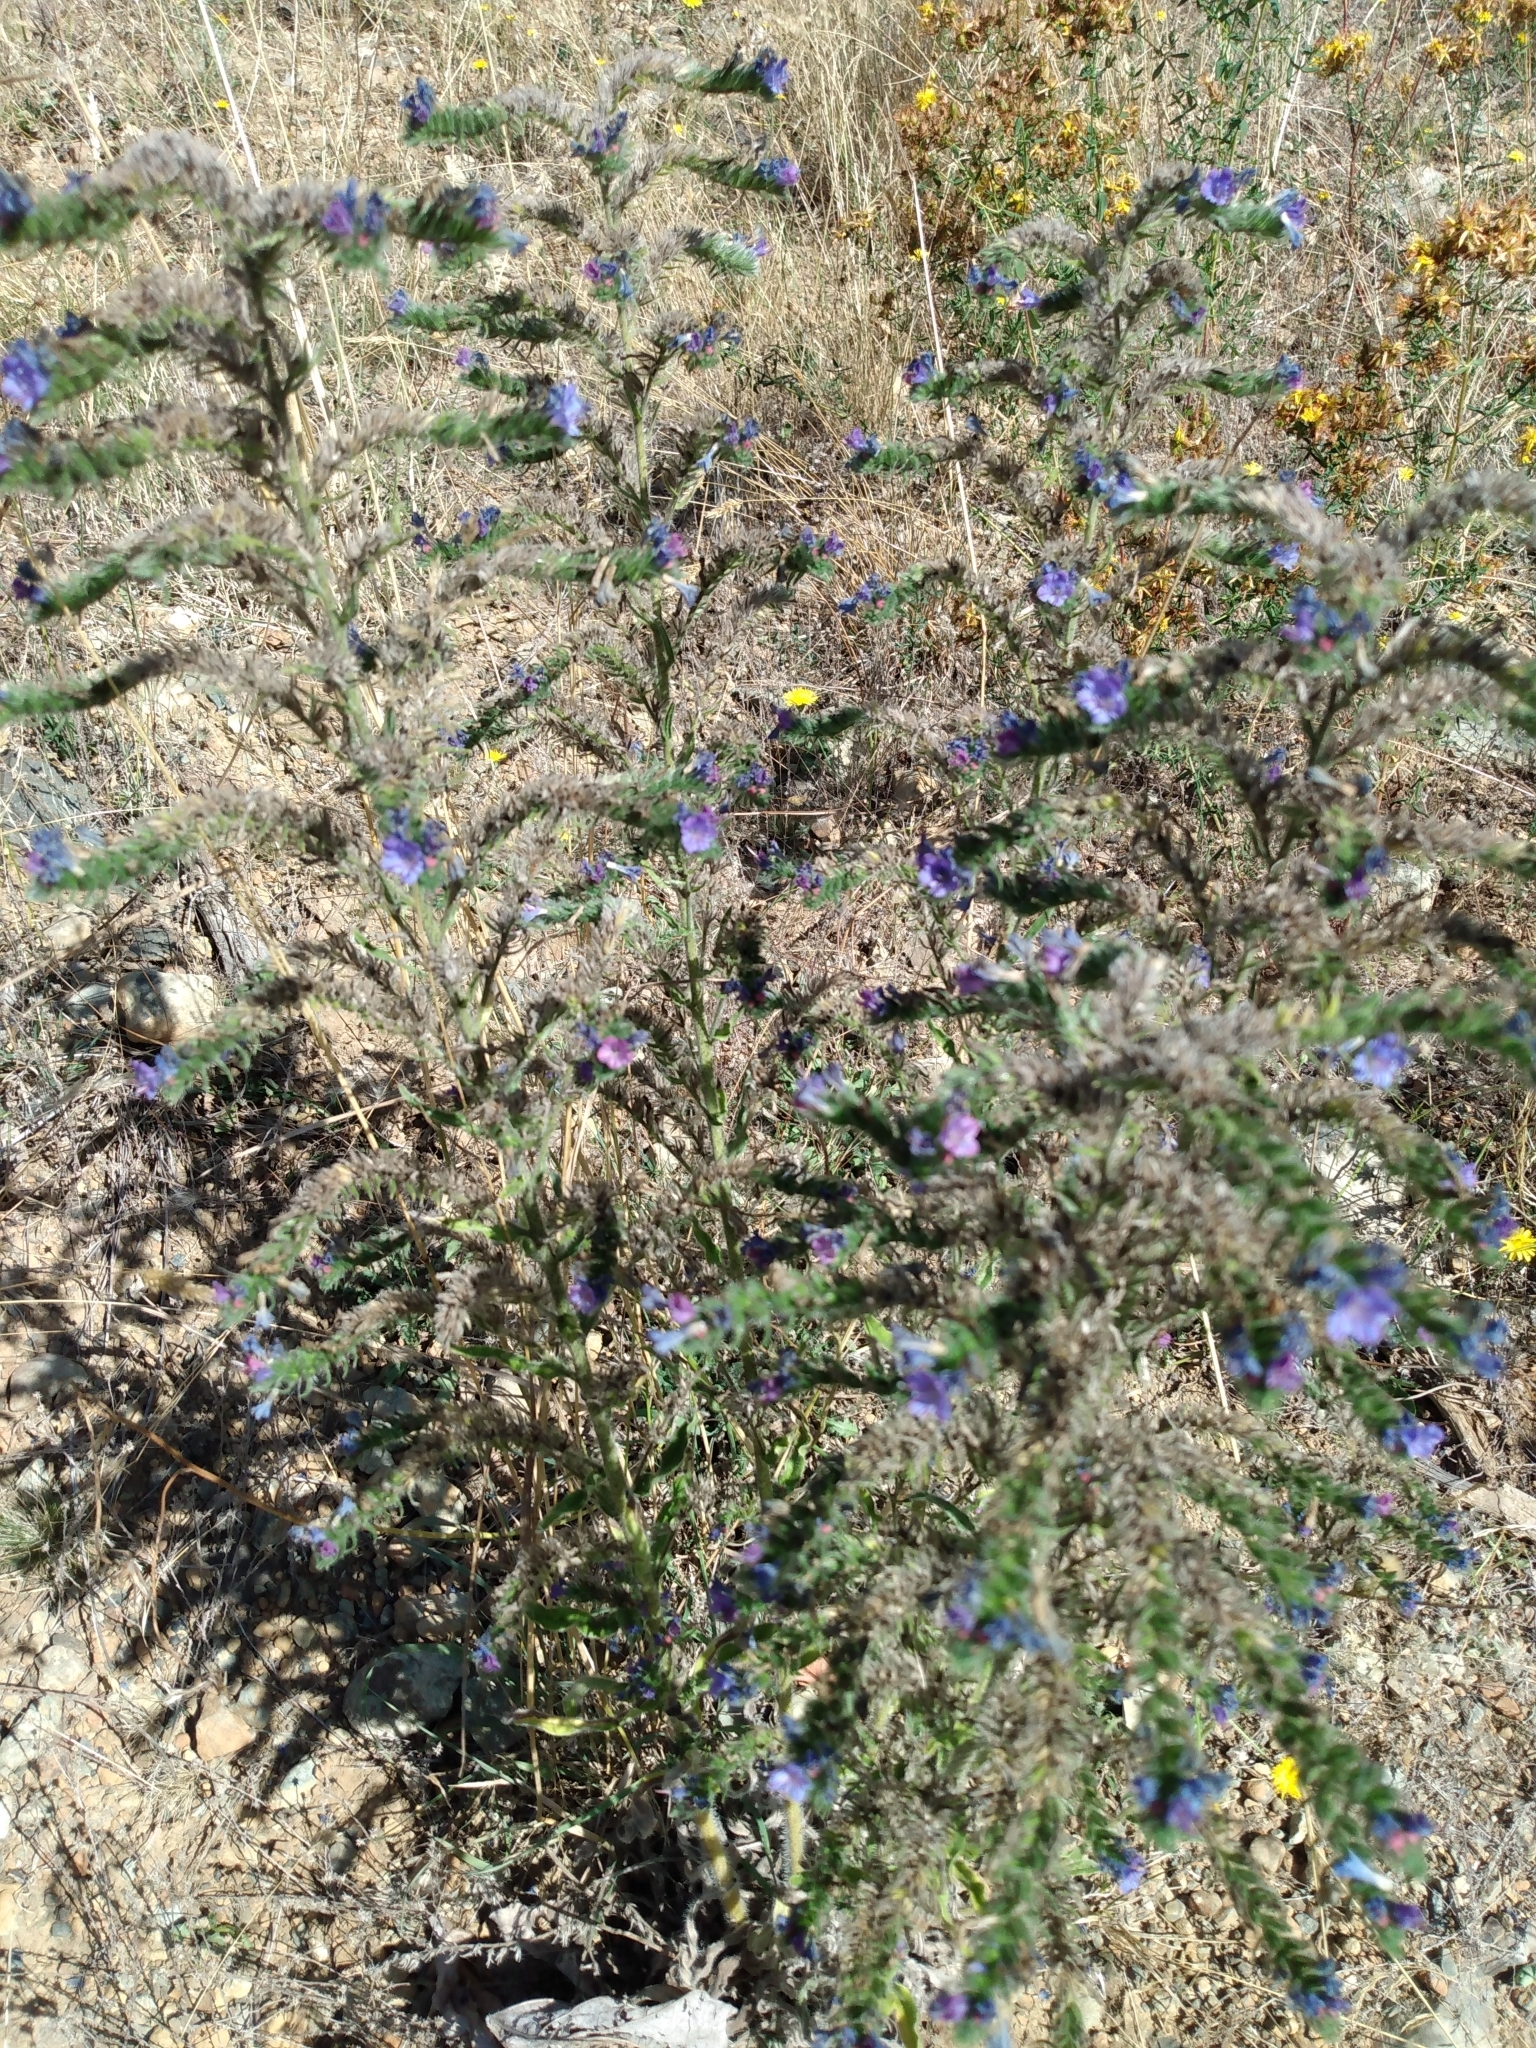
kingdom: Plantae
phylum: Tracheophyta
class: Magnoliopsida
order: Boraginales
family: Boraginaceae
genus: Echium
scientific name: Echium vulgare
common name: Common viper's bugloss
